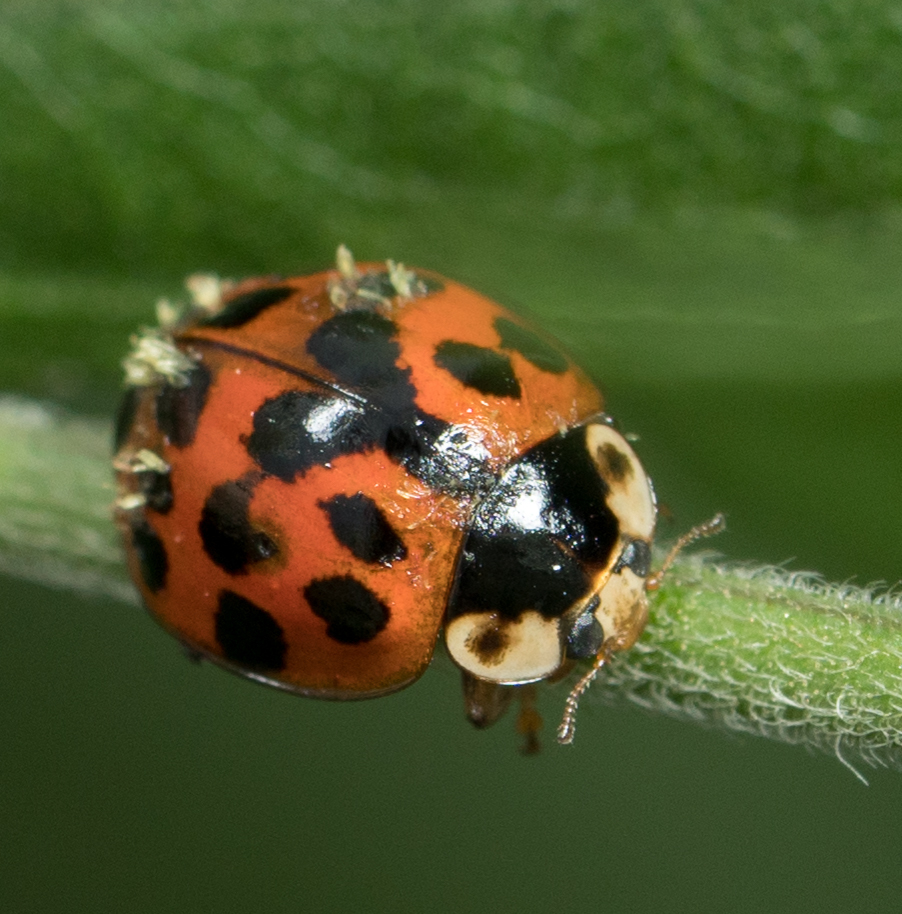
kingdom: Animalia
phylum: Arthropoda
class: Insecta
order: Coleoptera
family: Coccinellidae
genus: Harmonia
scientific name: Harmonia axyridis
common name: Harlequin ladybird
